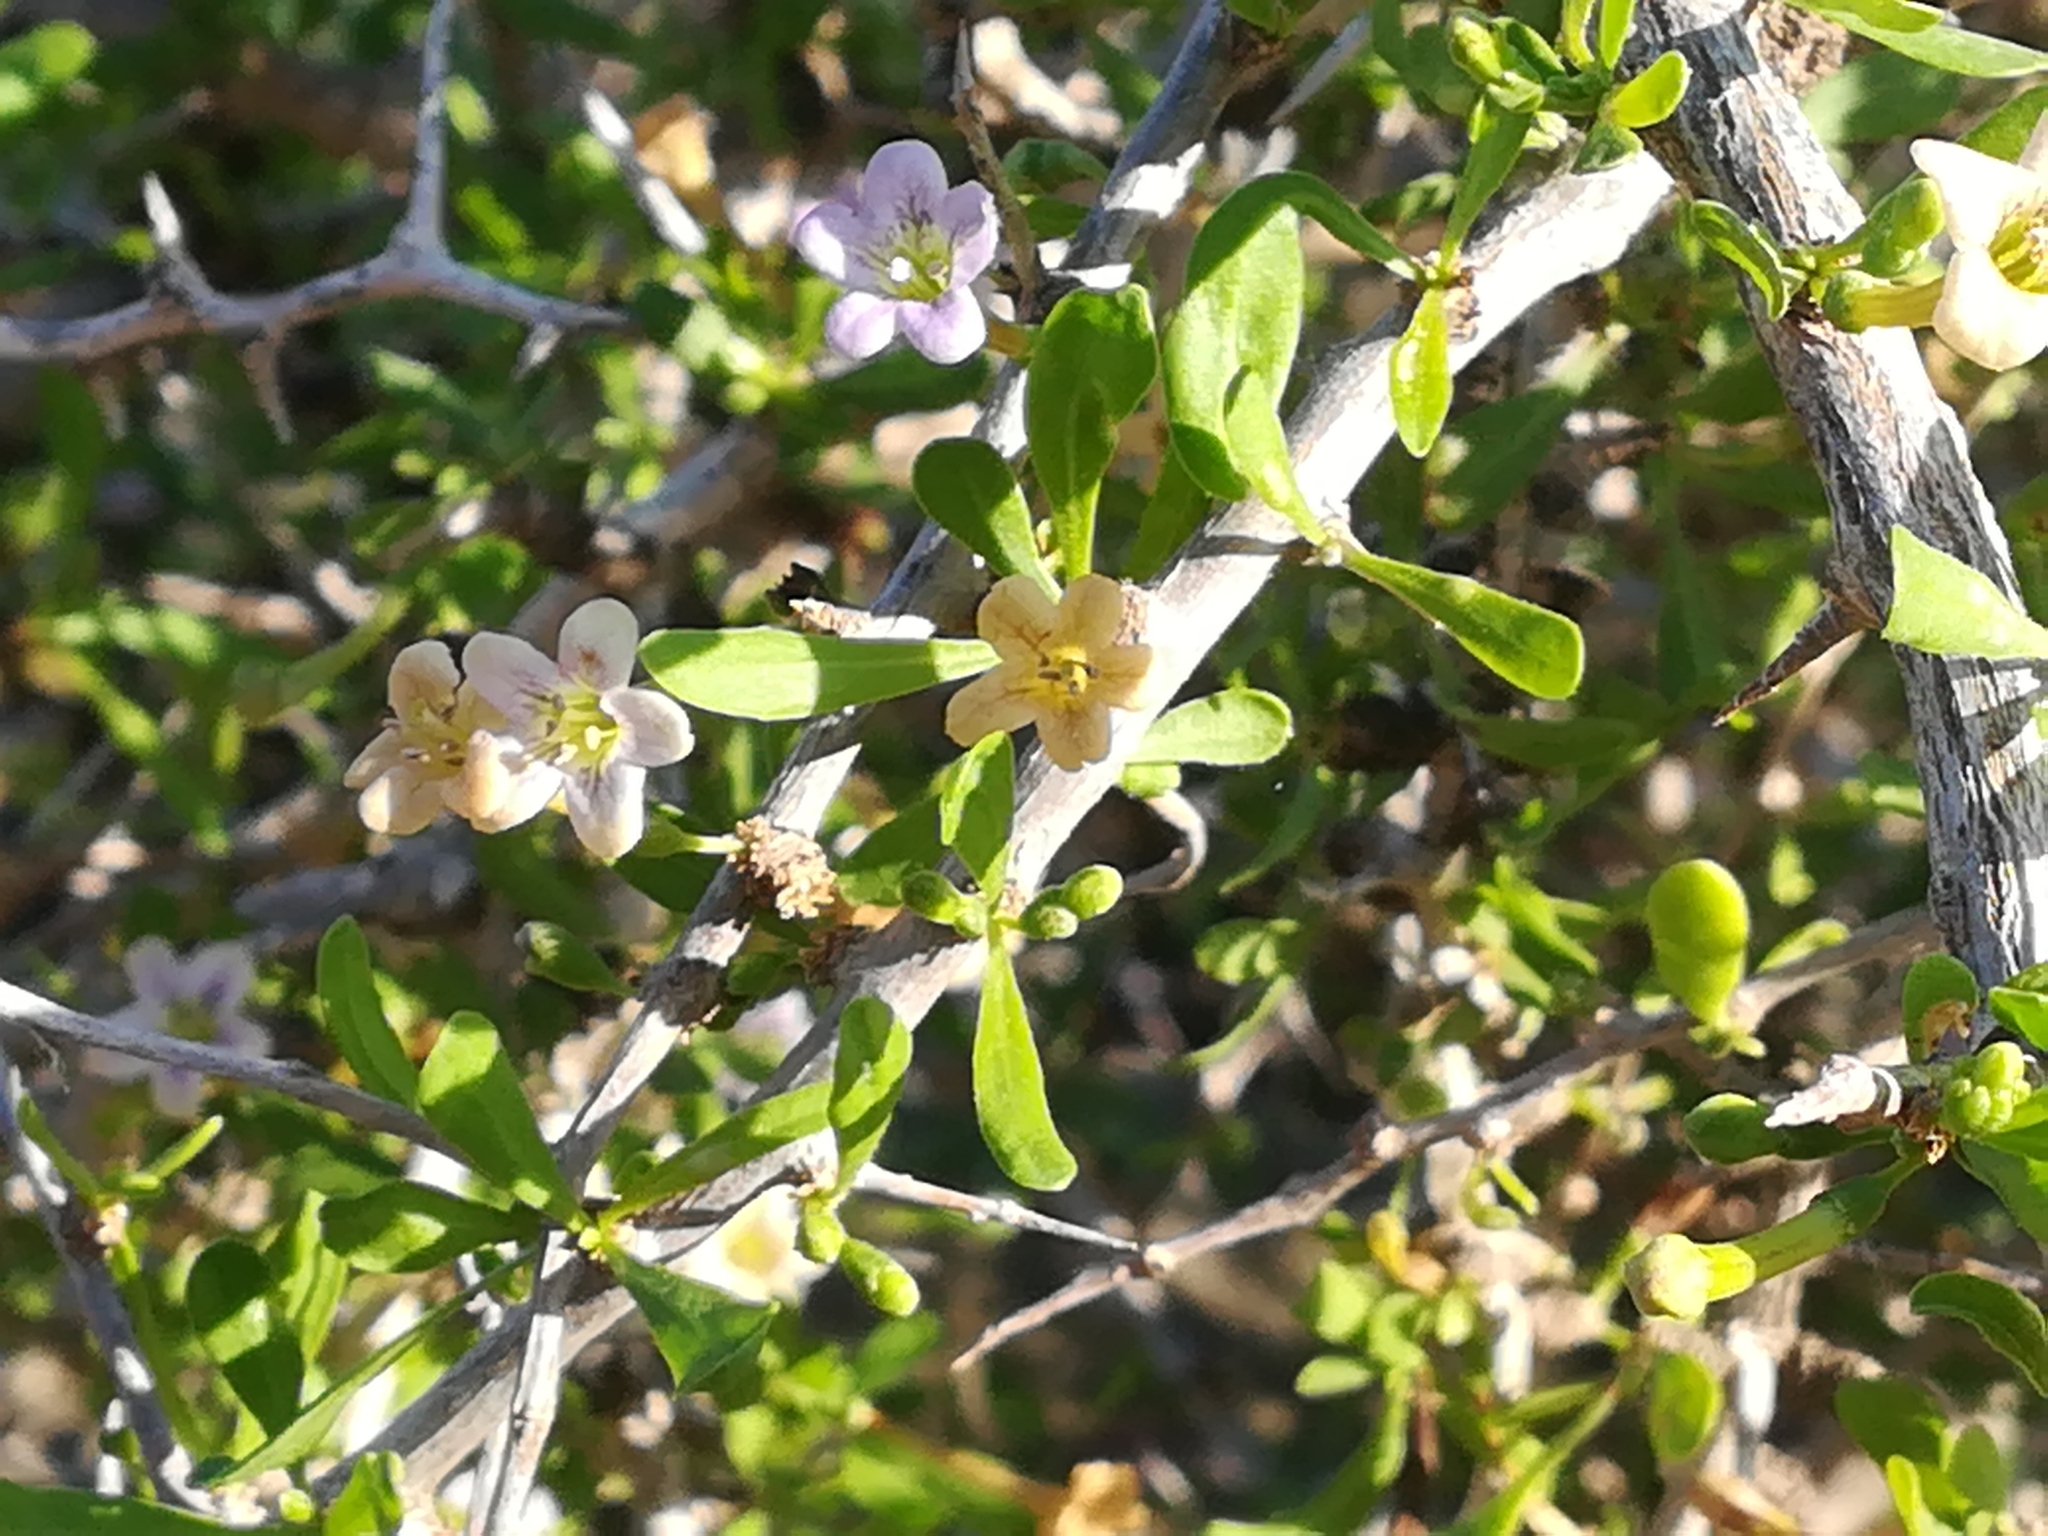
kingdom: Plantae
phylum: Tracheophyta
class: Magnoliopsida
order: Solanales
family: Solanaceae
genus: Lycium
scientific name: Lycium europaeum
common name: Boxthorn
